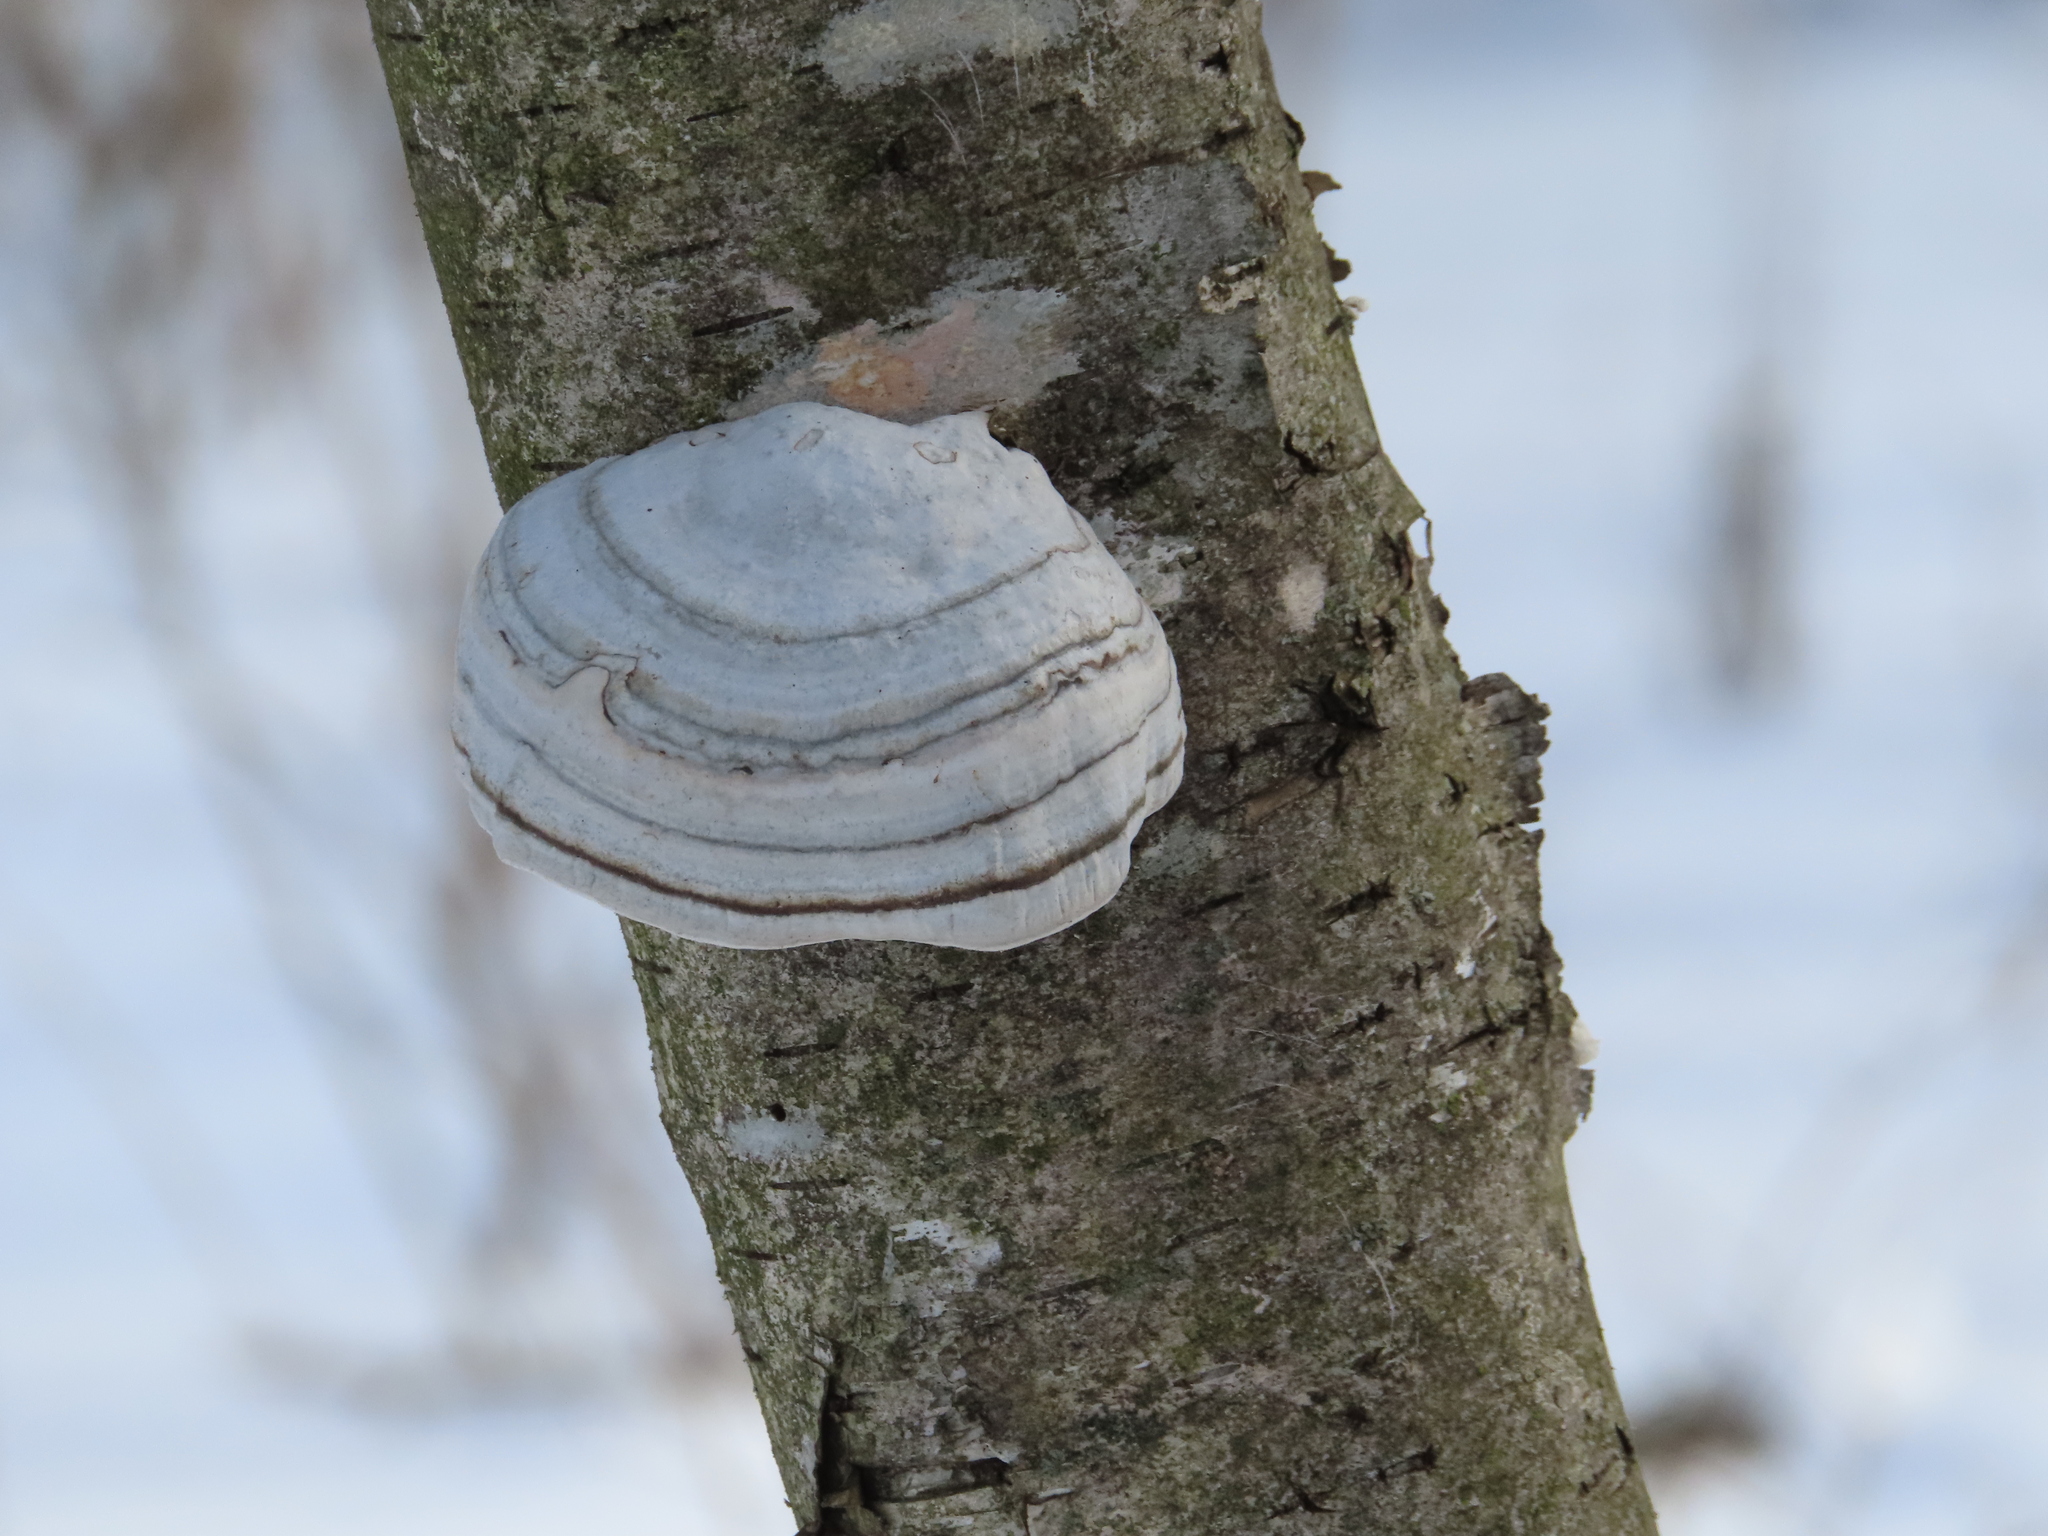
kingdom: Fungi
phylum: Basidiomycota
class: Agaricomycetes
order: Polyporales
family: Polyporaceae
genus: Fomes
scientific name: Fomes fomentarius
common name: Hoof fungus
